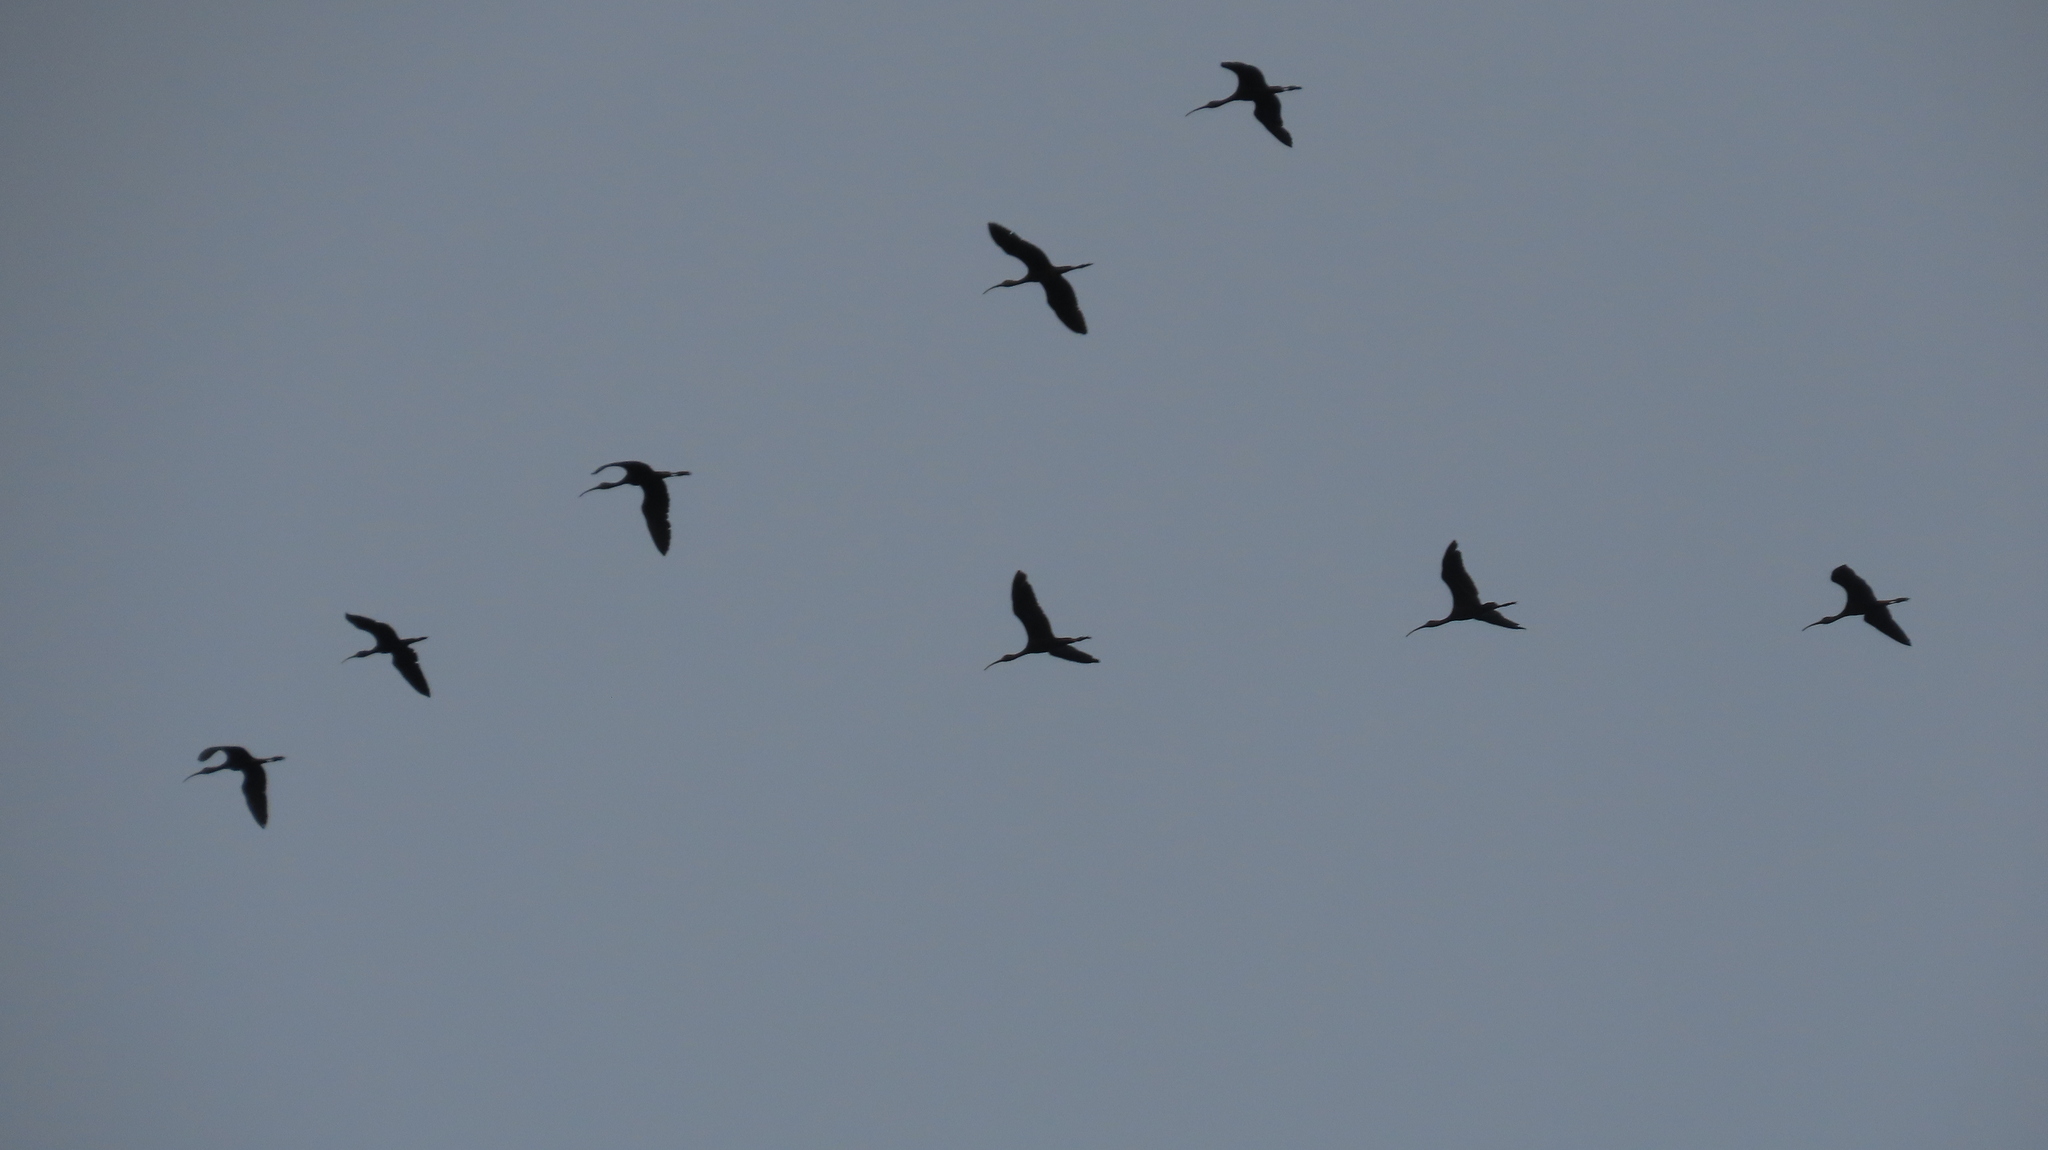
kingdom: Animalia
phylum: Chordata
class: Aves
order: Pelecaniformes
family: Threskiornithidae
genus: Plegadis
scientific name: Plegadis falcinellus
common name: Glossy ibis
